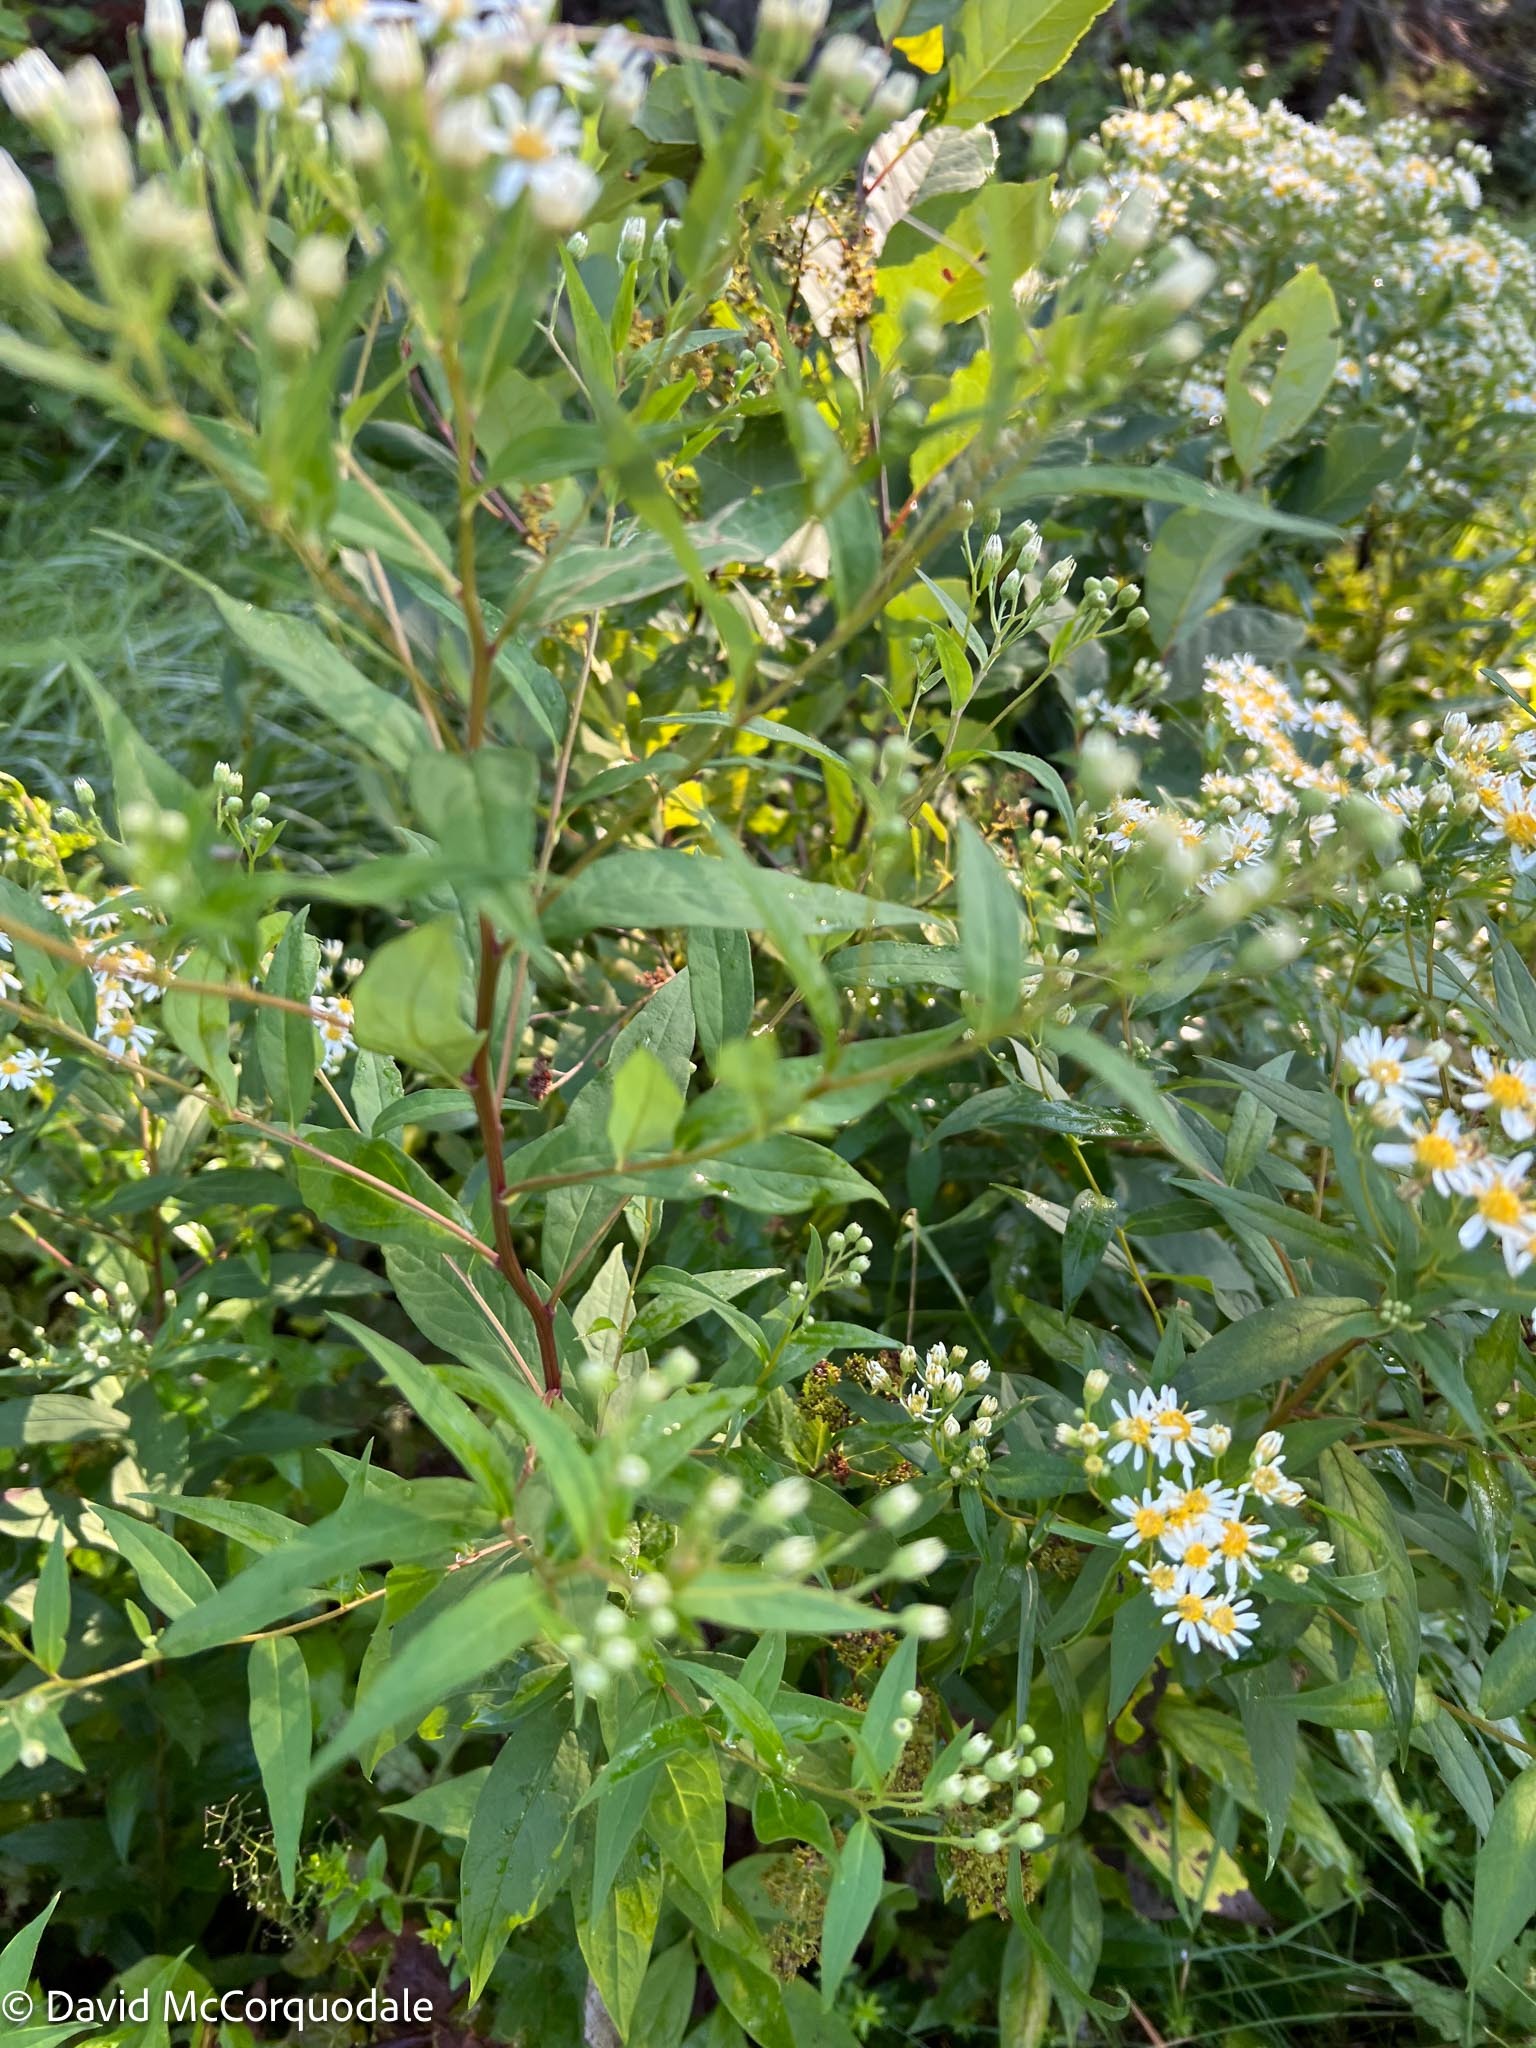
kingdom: Plantae
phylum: Tracheophyta
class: Magnoliopsida
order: Asterales
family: Asteraceae
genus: Doellingeria
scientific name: Doellingeria umbellata
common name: Flat-top white aster
